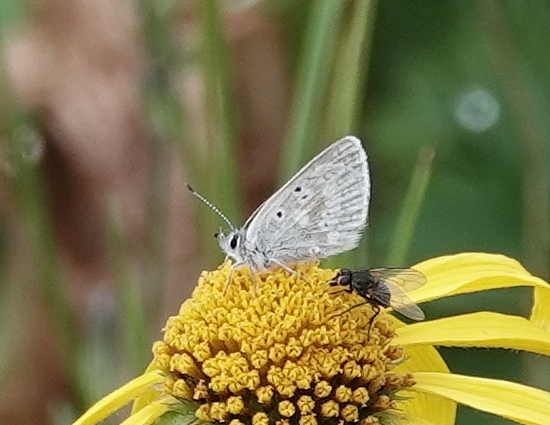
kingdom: Animalia
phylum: Arthropoda
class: Insecta
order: Lepidoptera
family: Lycaenidae
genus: Agriades
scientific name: Agriades glandon
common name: Glandon blue
